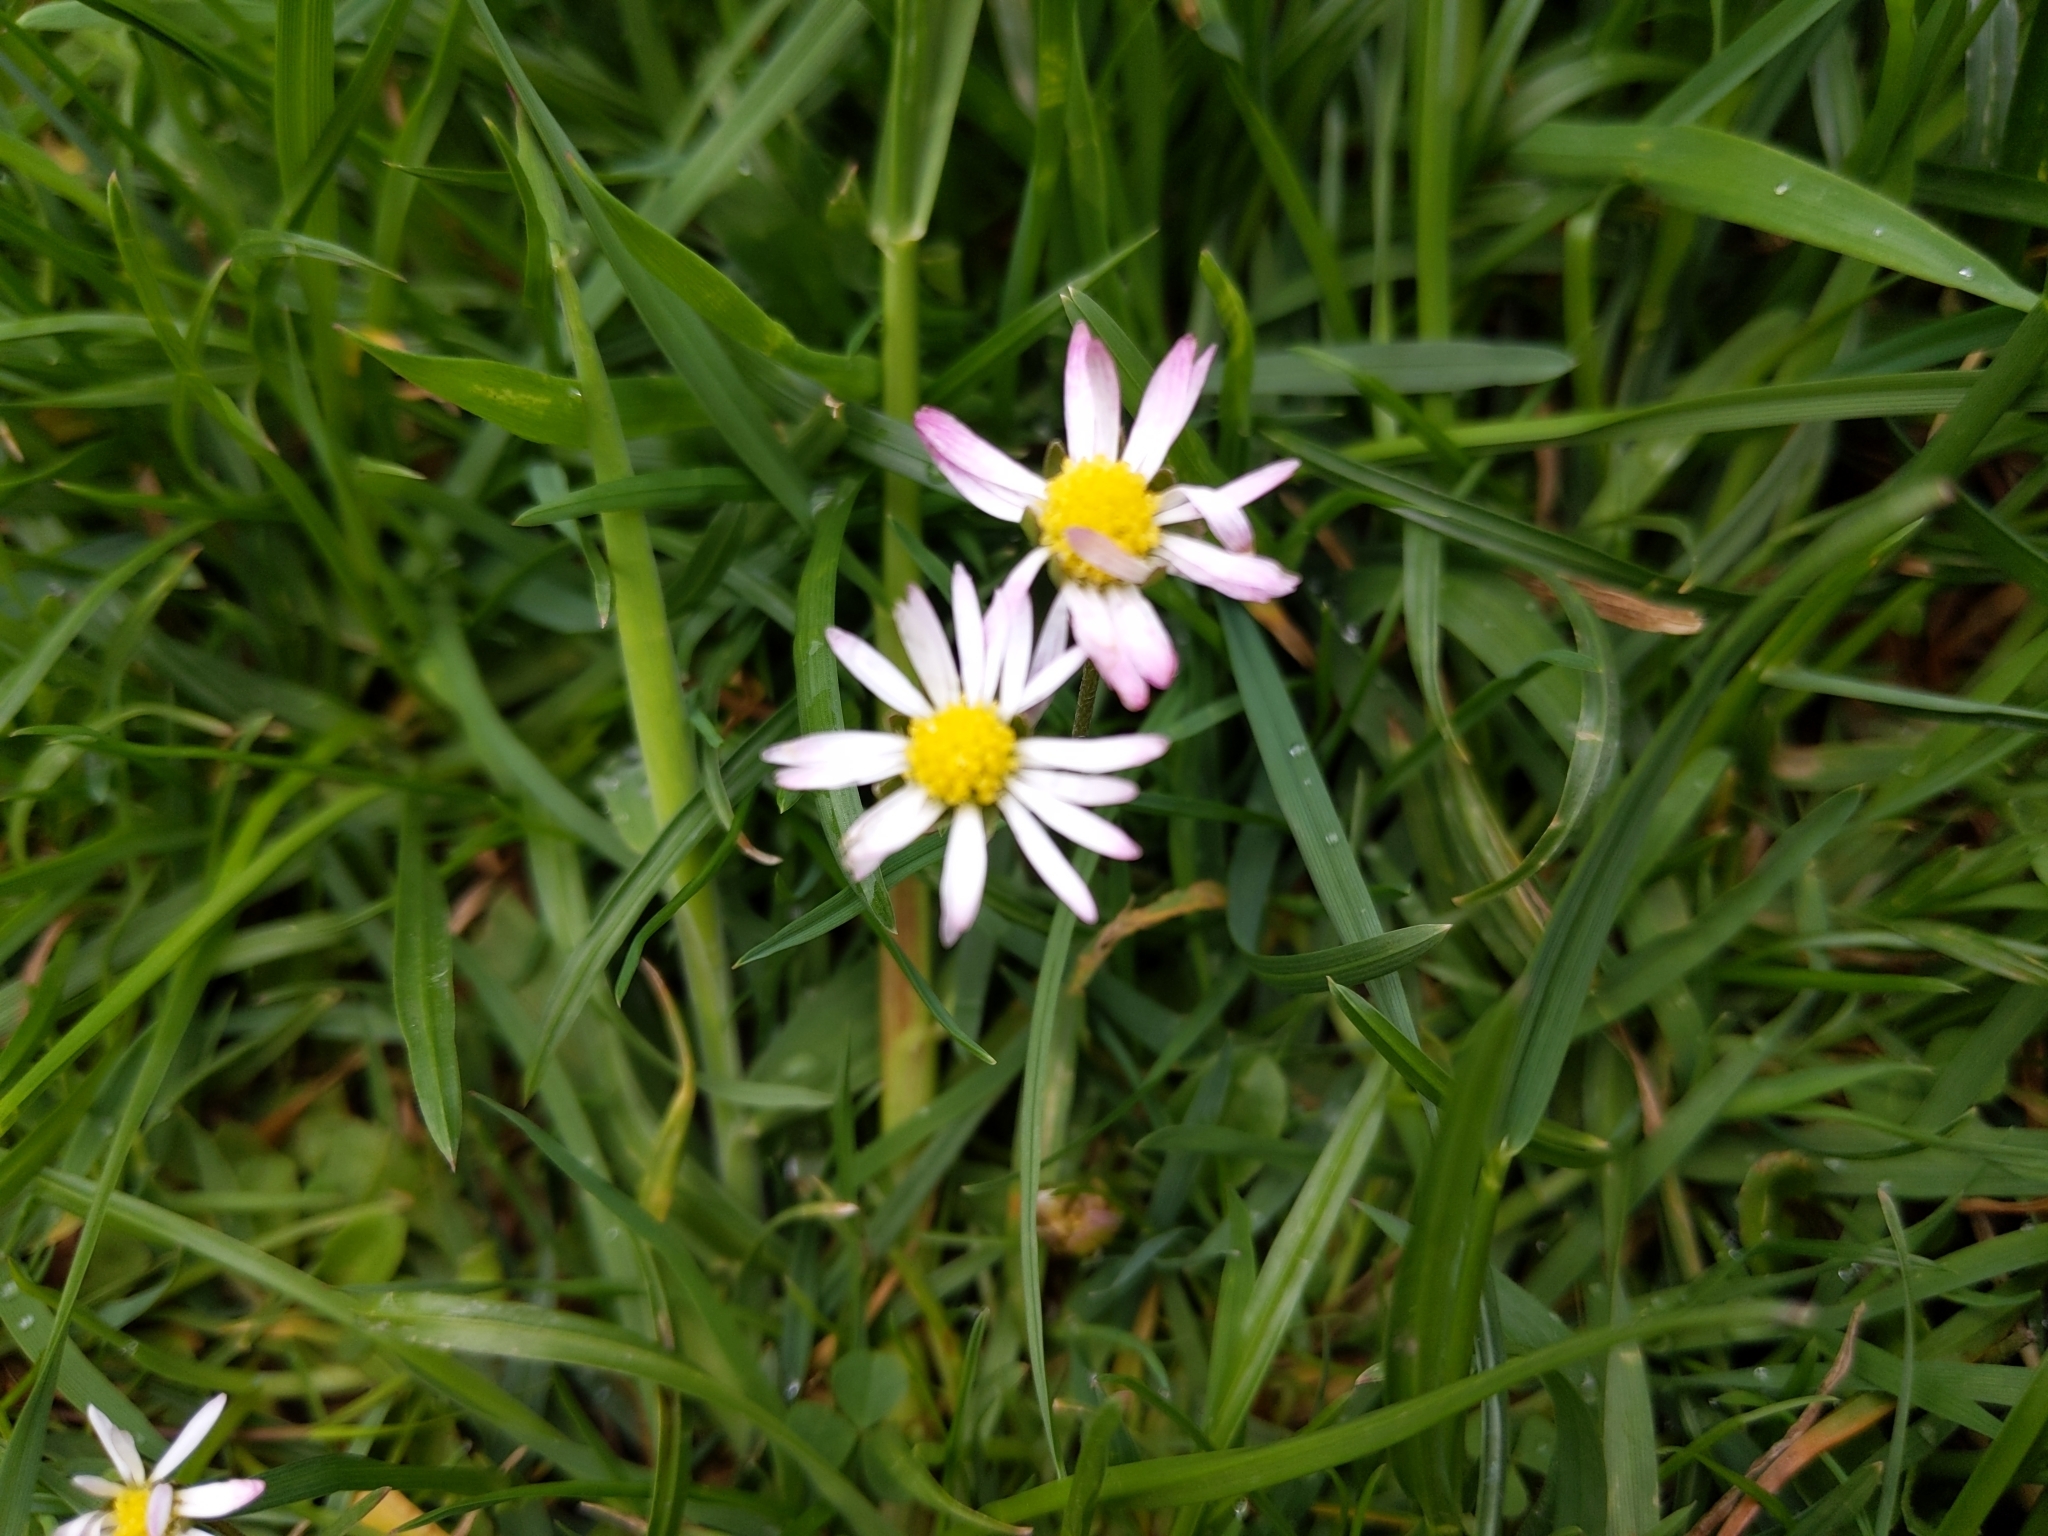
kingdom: Plantae
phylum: Tracheophyta
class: Magnoliopsida
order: Asterales
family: Asteraceae
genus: Bellis
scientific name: Bellis perennis
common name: Lawndaisy
